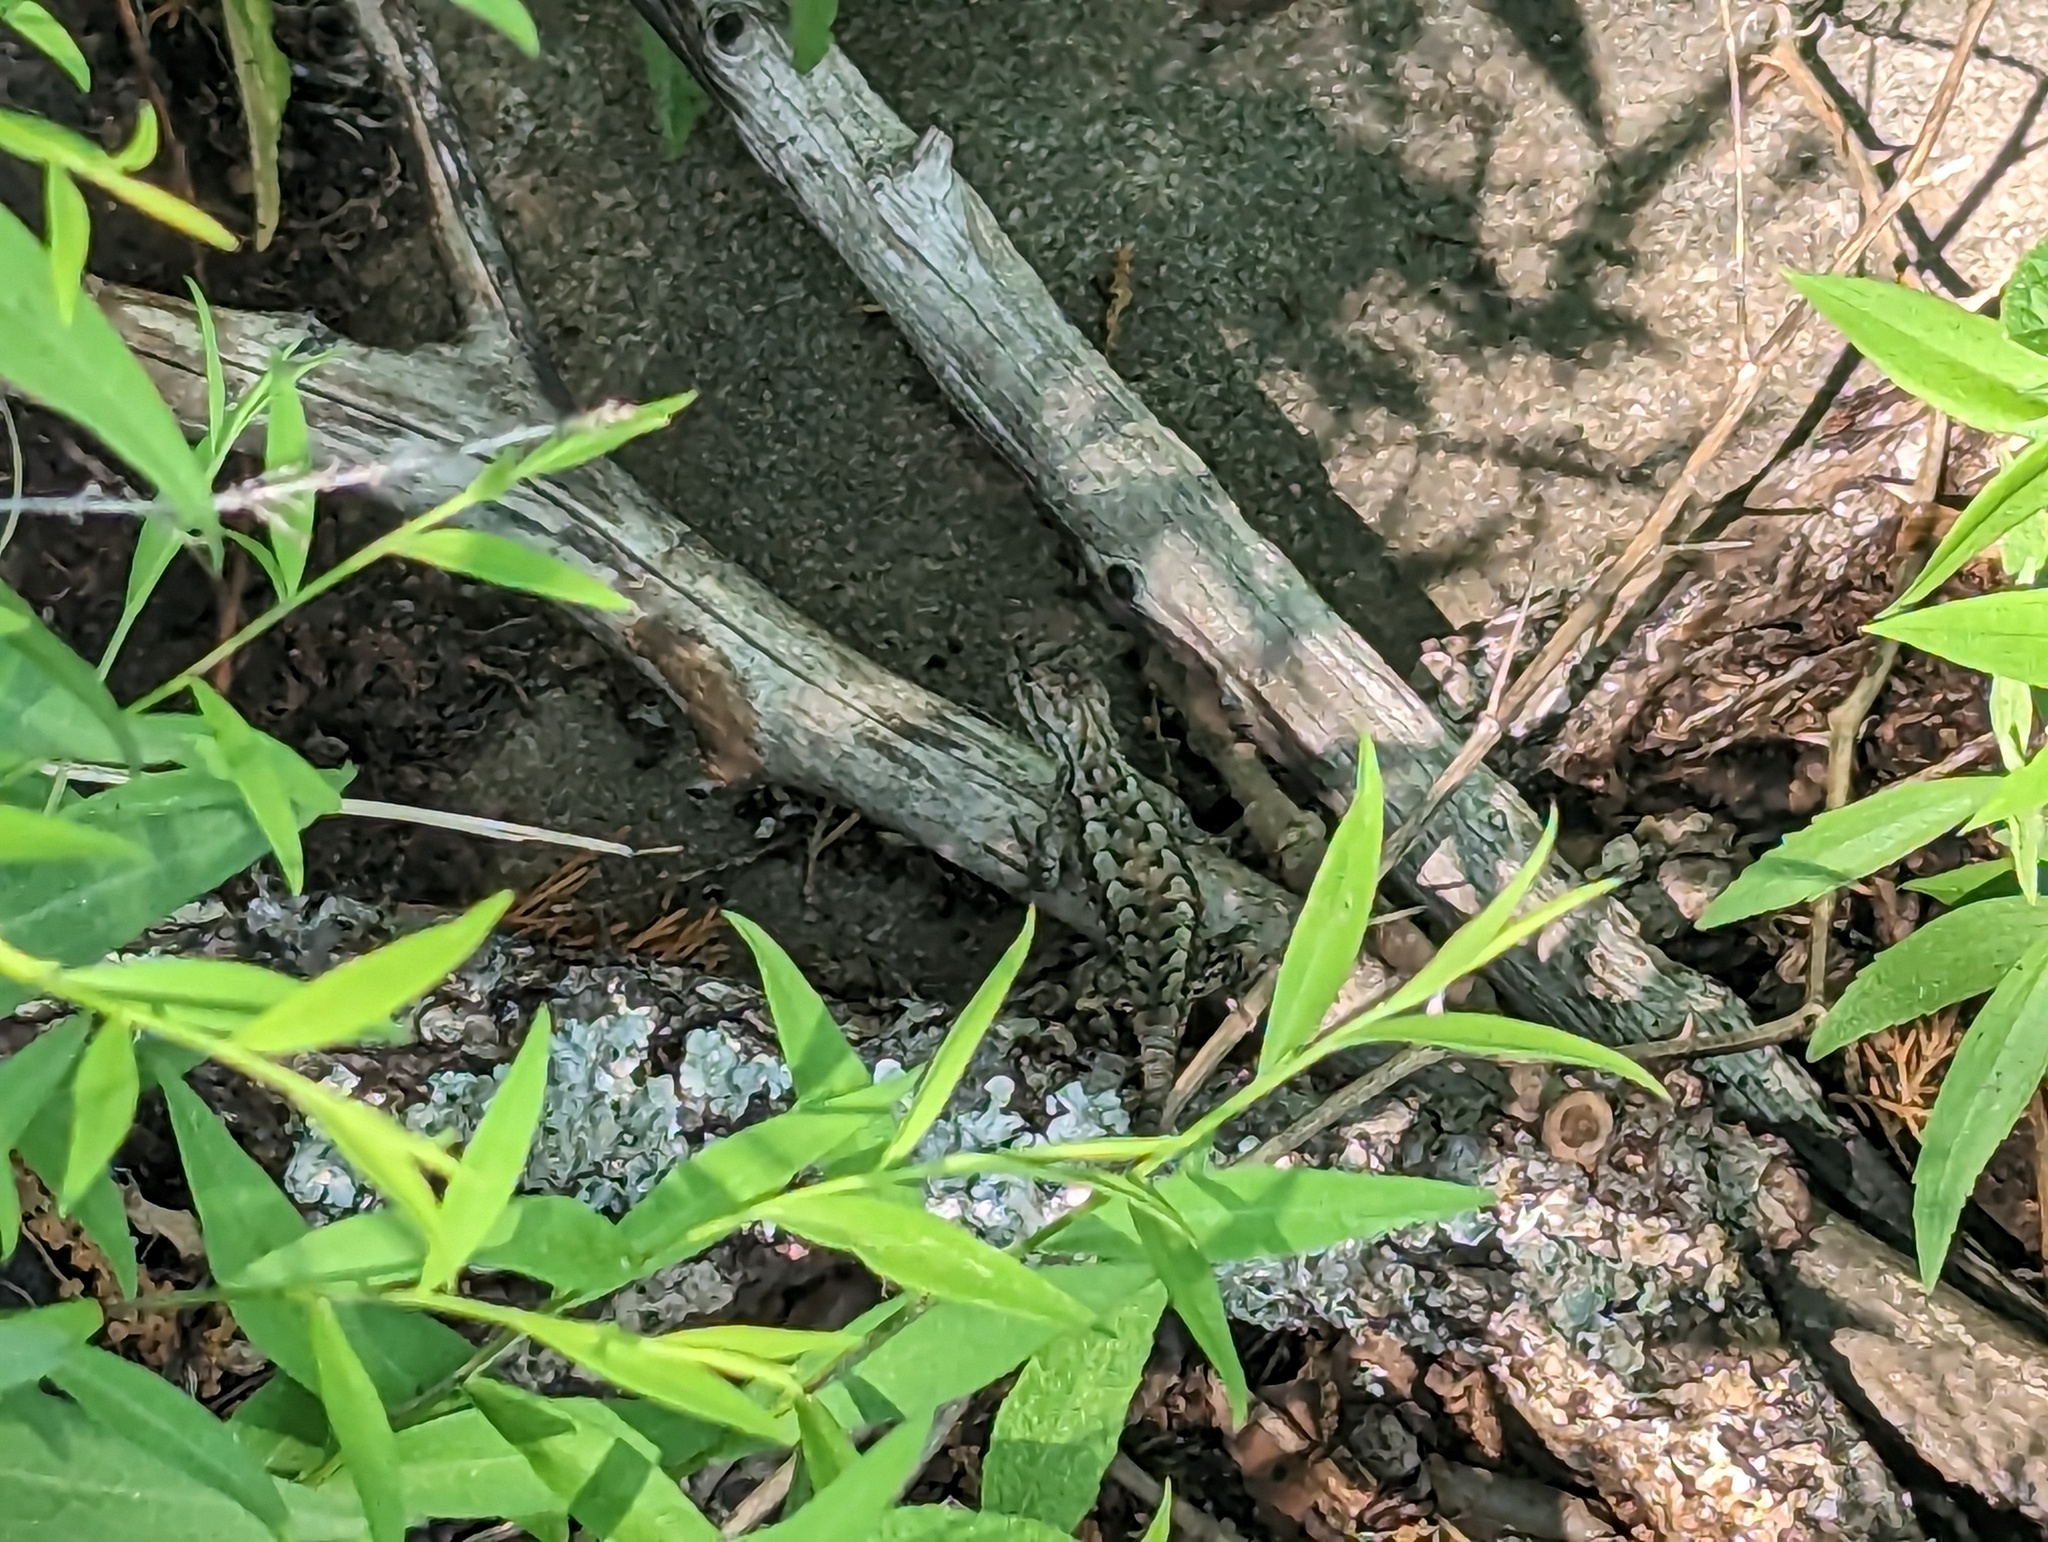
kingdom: Animalia
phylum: Chordata
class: Squamata
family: Phrynosomatidae
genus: Sceloporus
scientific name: Sceloporus undulatus
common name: Eastern fence lizard
